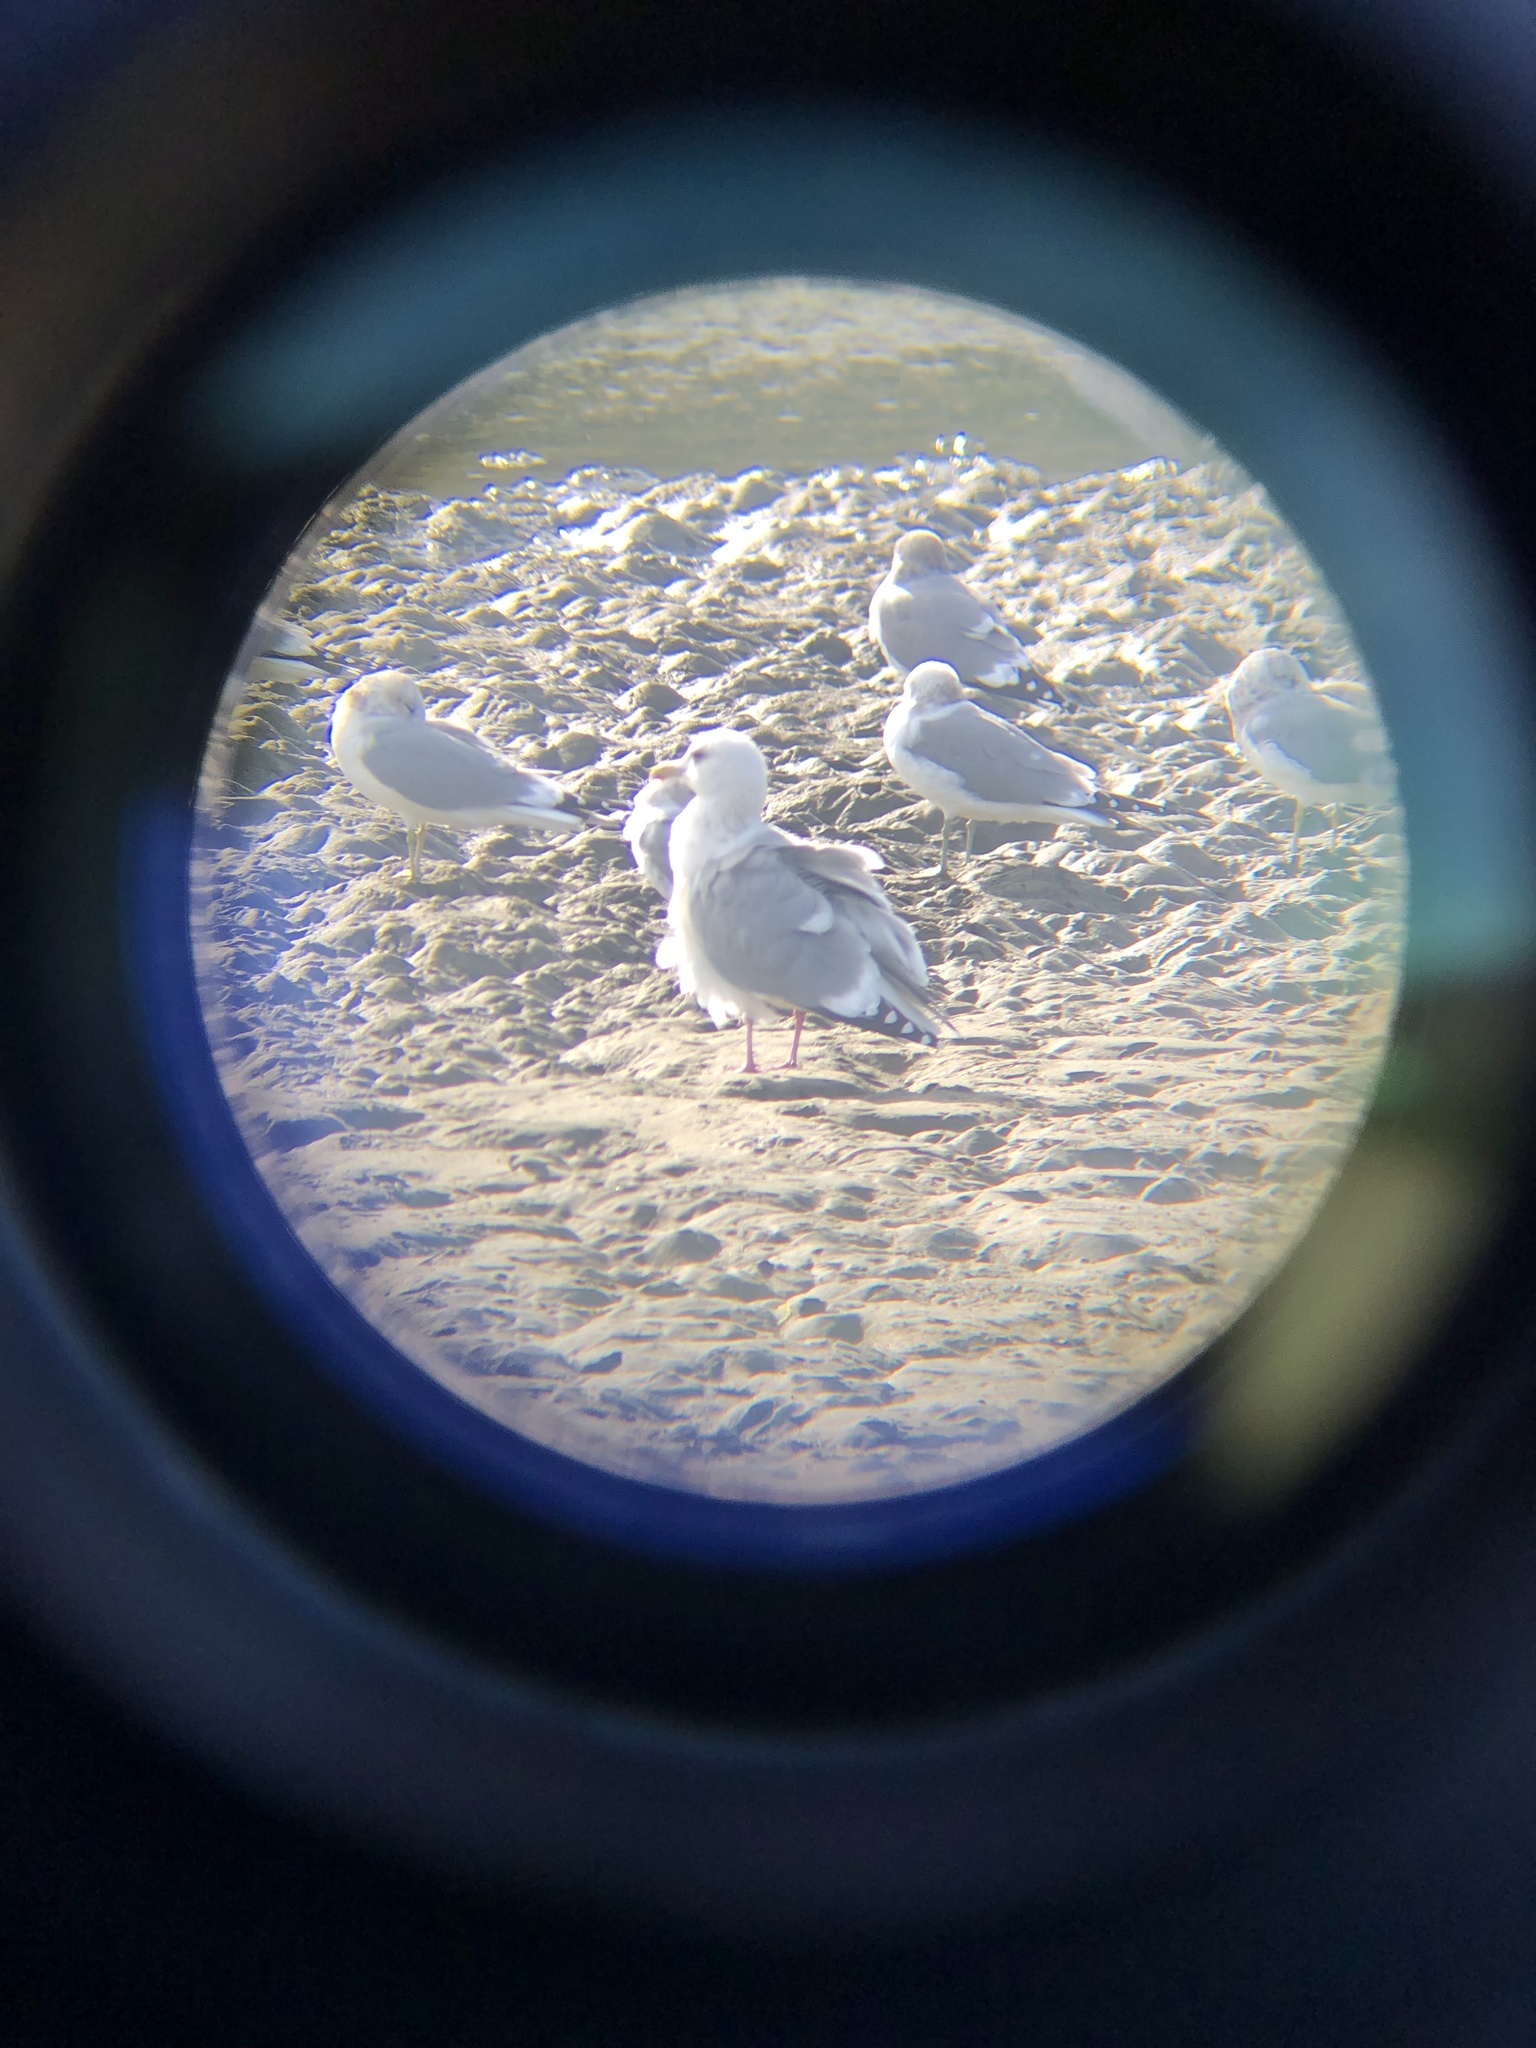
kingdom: Animalia
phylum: Chordata
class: Aves
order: Charadriiformes
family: Laridae
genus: Larus
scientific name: Larus glaucoides
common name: Iceland gull
